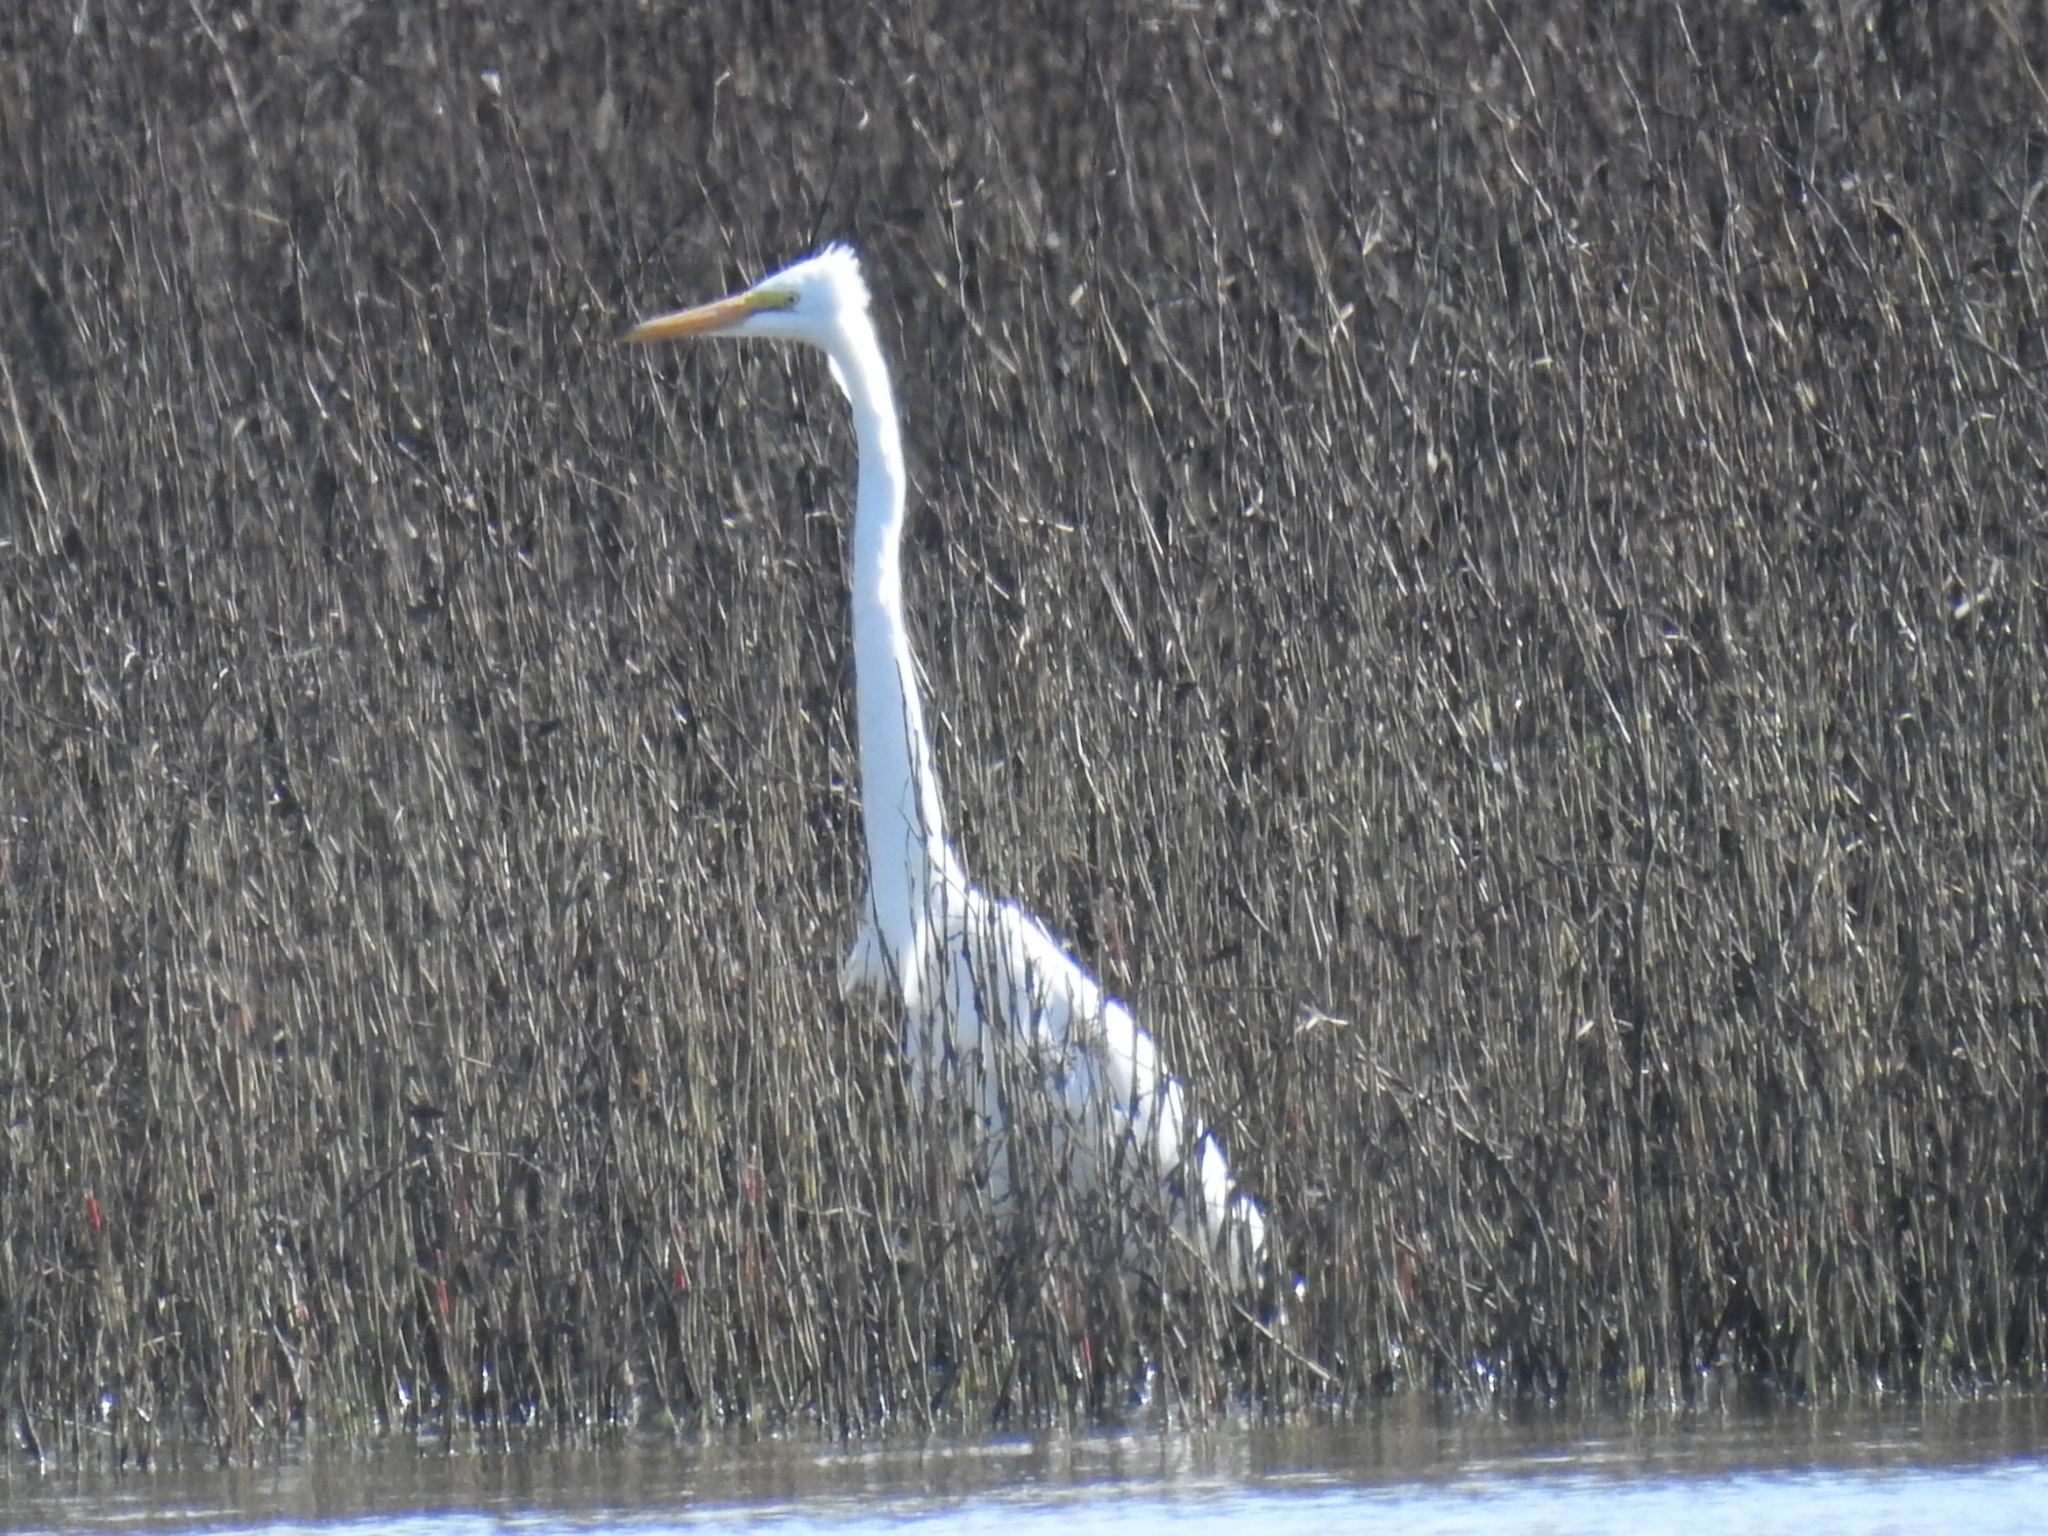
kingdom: Animalia
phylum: Chordata
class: Aves
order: Pelecaniformes
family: Ardeidae
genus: Ardea
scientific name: Ardea alba
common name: Great egret
